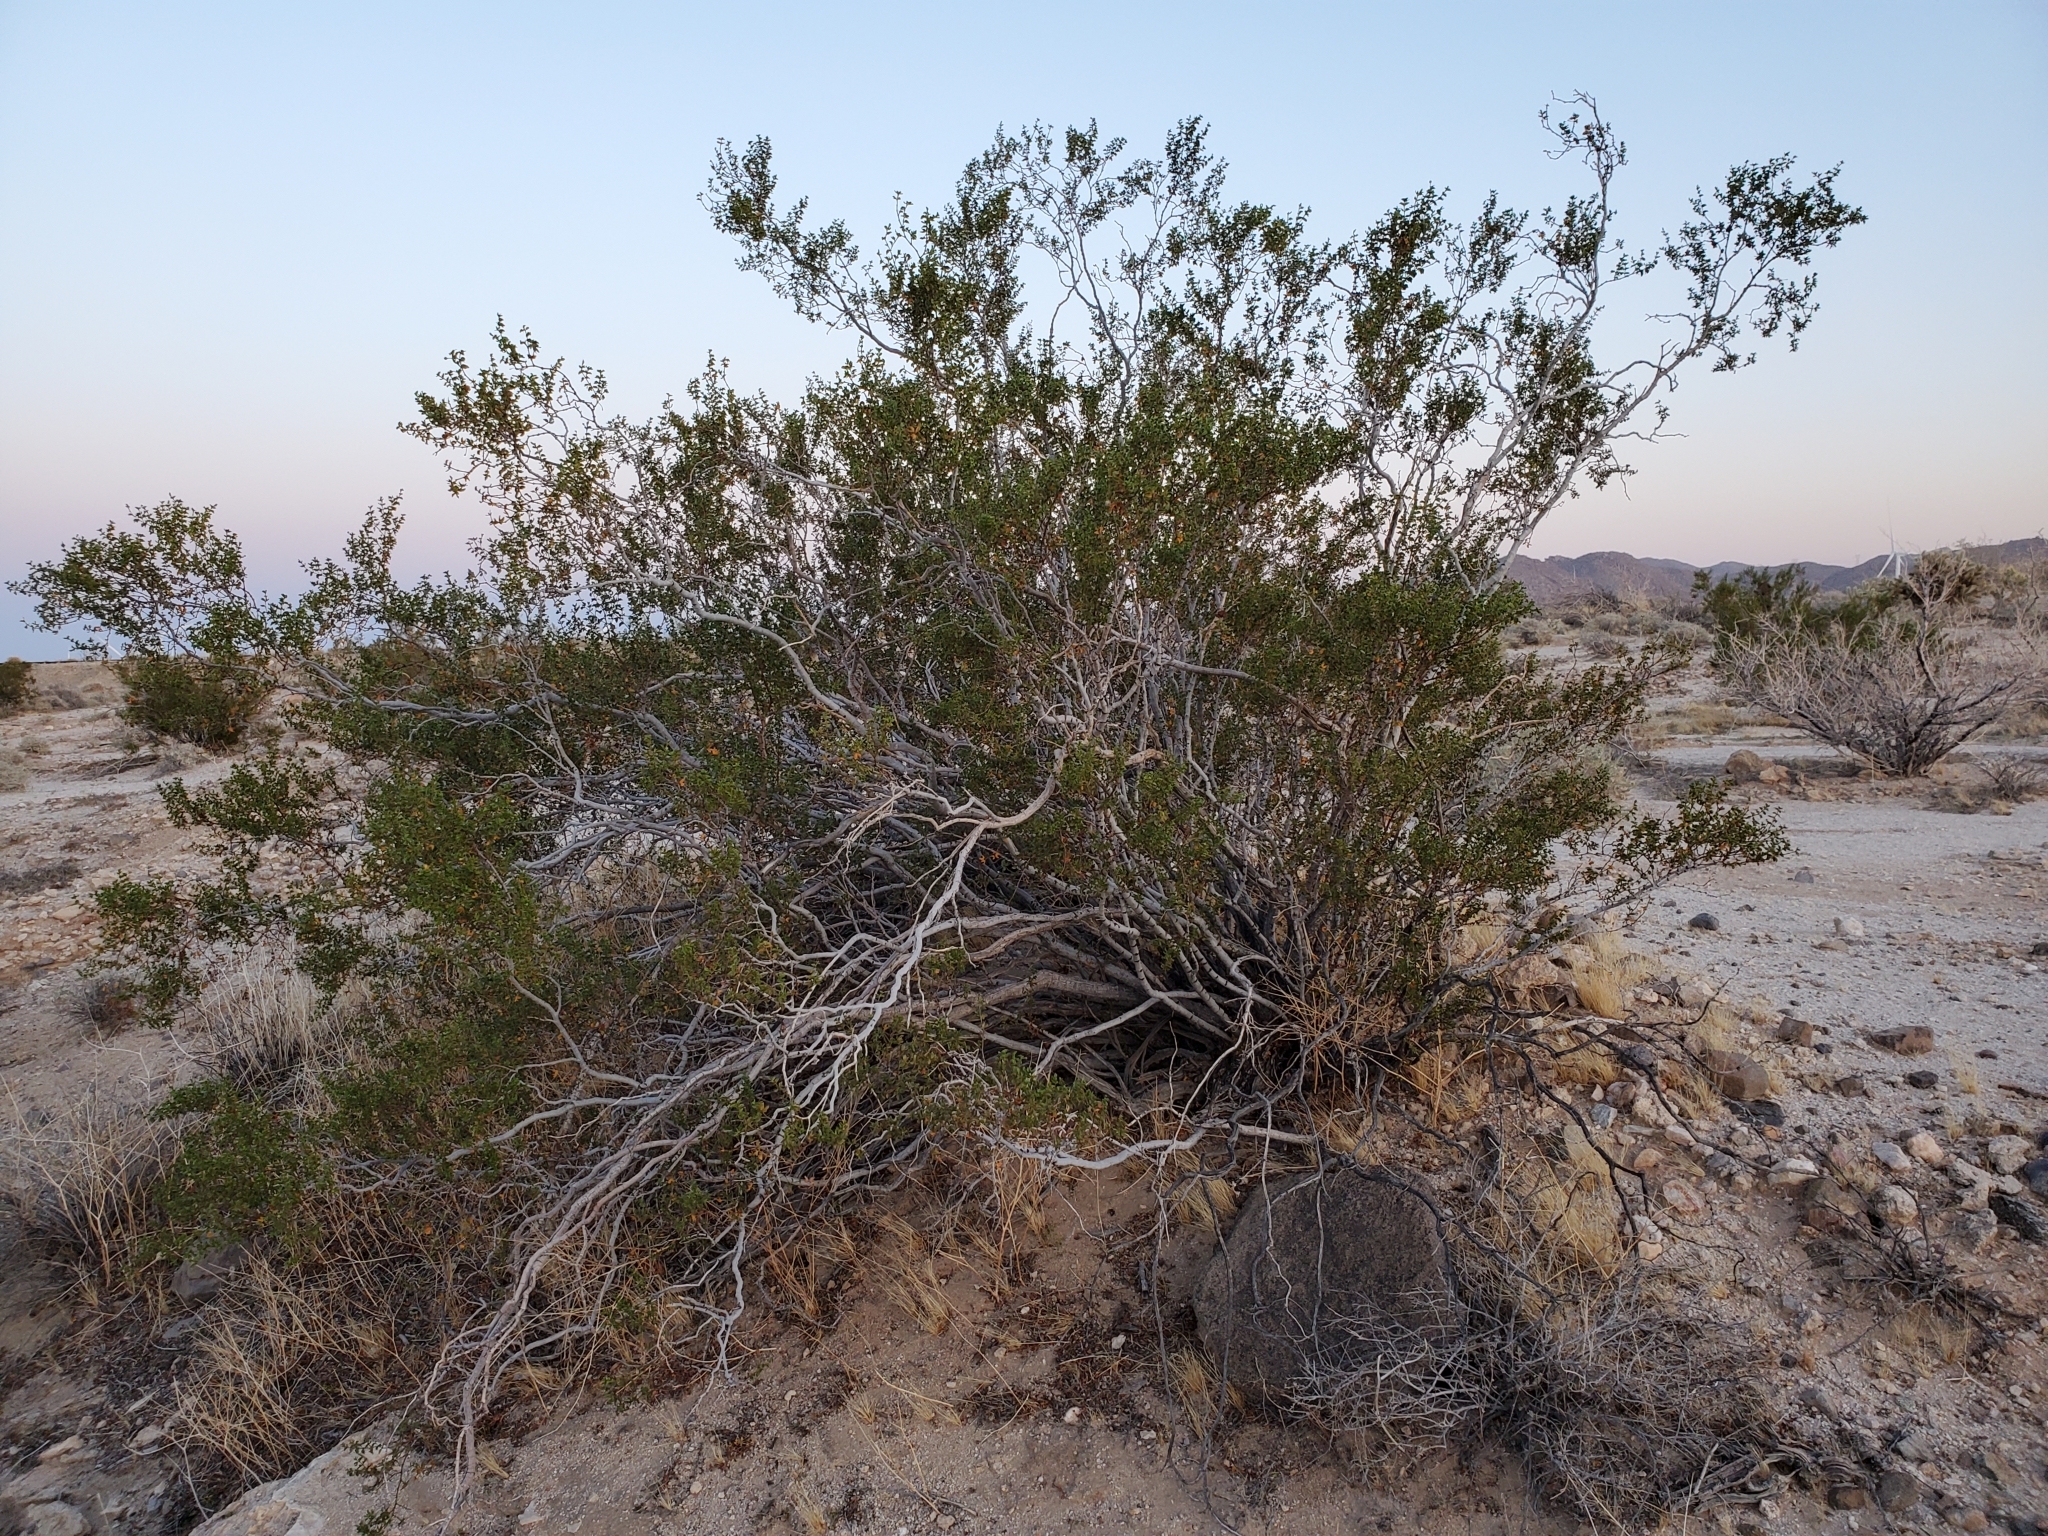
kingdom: Plantae
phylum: Tracheophyta
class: Magnoliopsida
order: Zygophyllales
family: Zygophyllaceae
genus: Larrea
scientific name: Larrea tridentata
